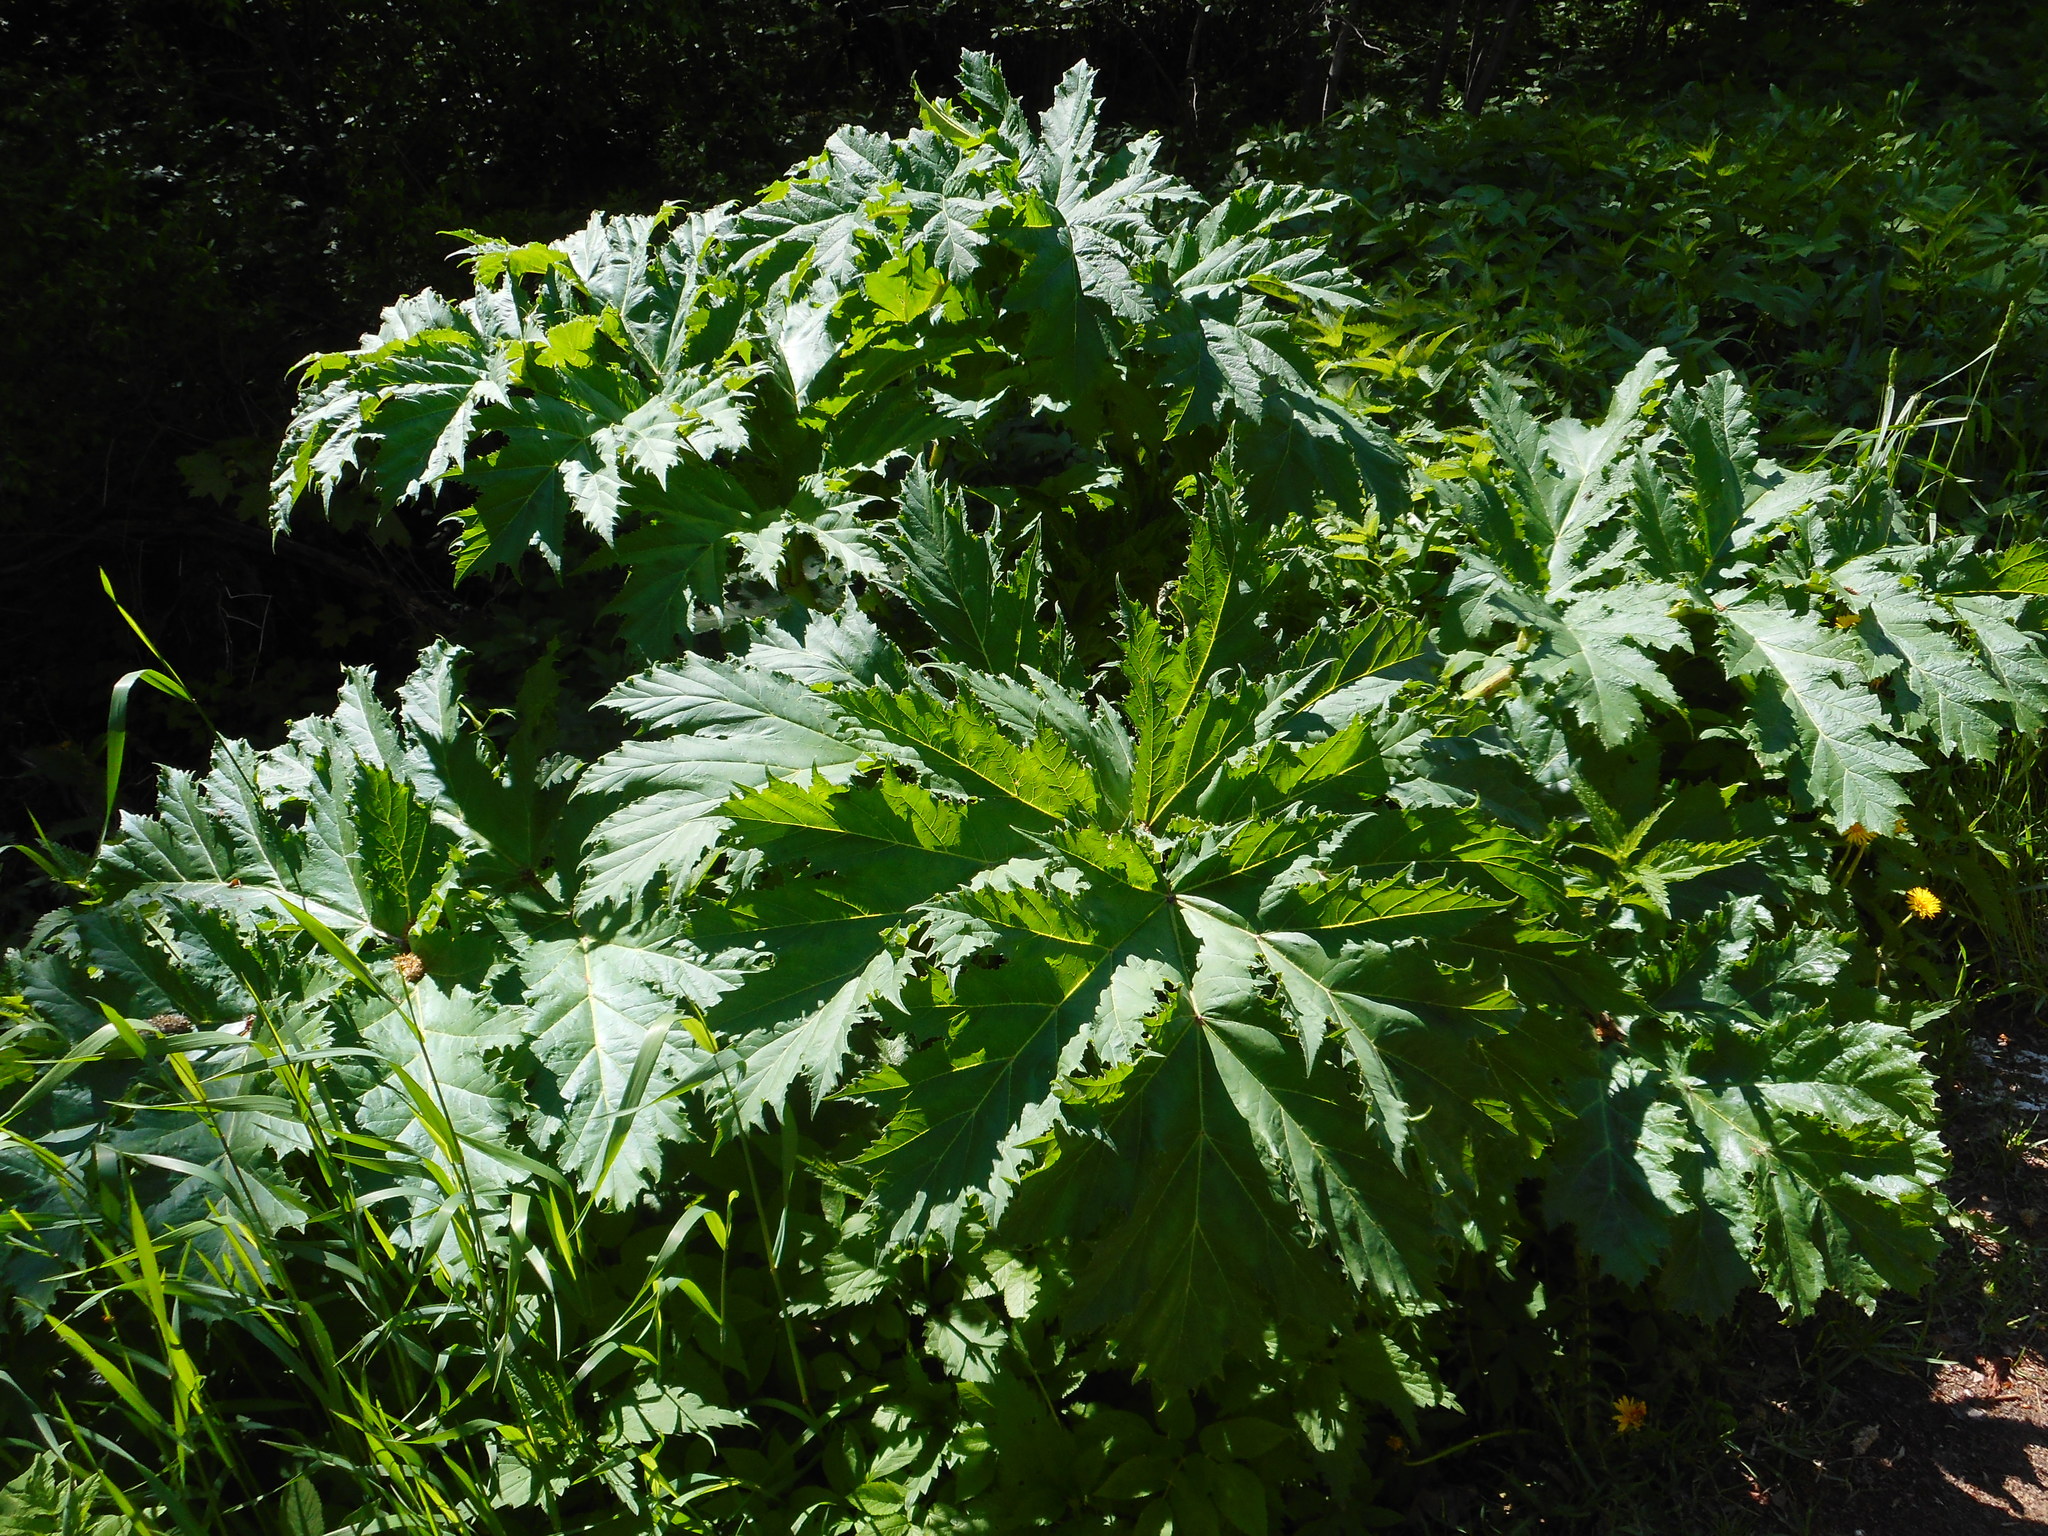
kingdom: Plantae
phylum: Tracheophyta
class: Magnoliopsida
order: Apiales
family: Apiaceae
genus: Heracleum
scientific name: Heracleum sosnowskyi
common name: Sosnowsky's hogweed
